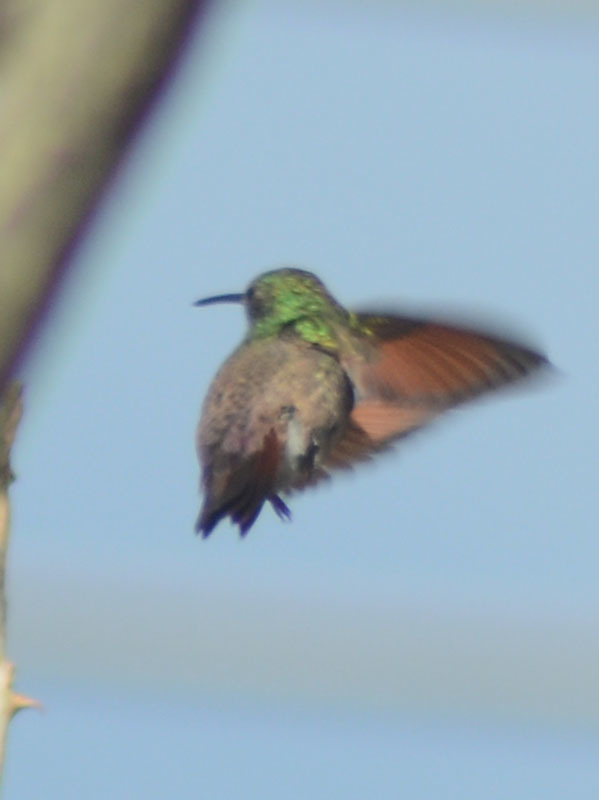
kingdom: Animalia
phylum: Chordata
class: Aves
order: Apodiformes
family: Trochilidae
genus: Saucerottia
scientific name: Saucerottia beryllina
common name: Berylline hummingbird
